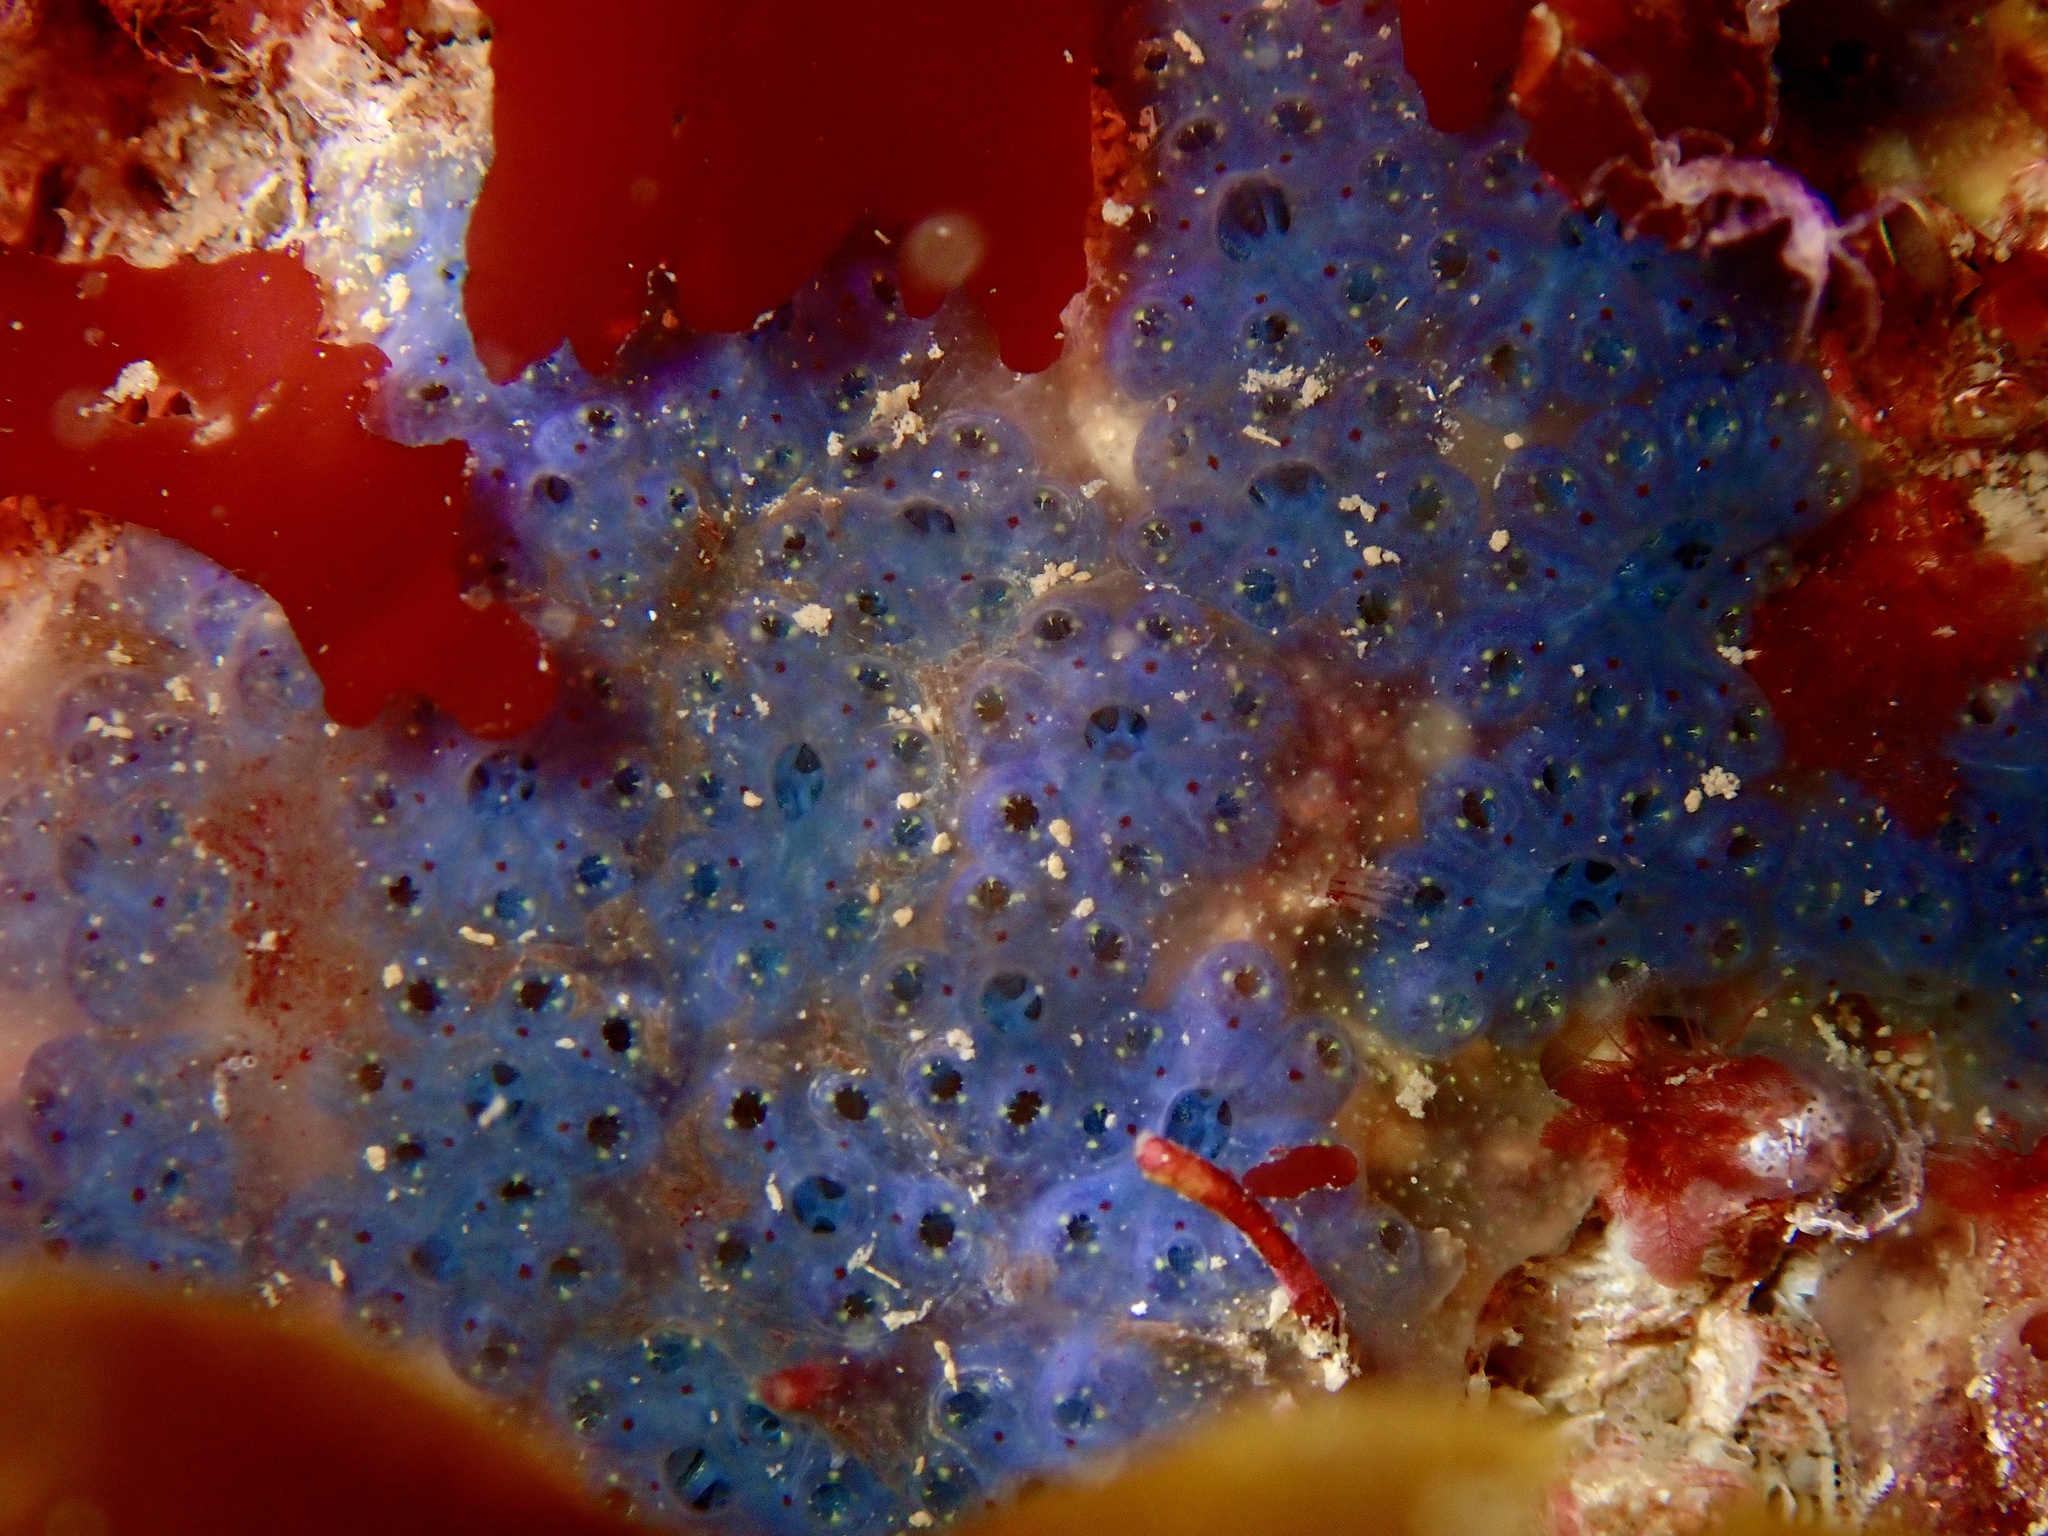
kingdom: Animalia
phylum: Chordata
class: Ascidiacea
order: Stolidobranchia
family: Styelidae
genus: Botryllus
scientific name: Botryllus schlosseri
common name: Golden star tunicate
